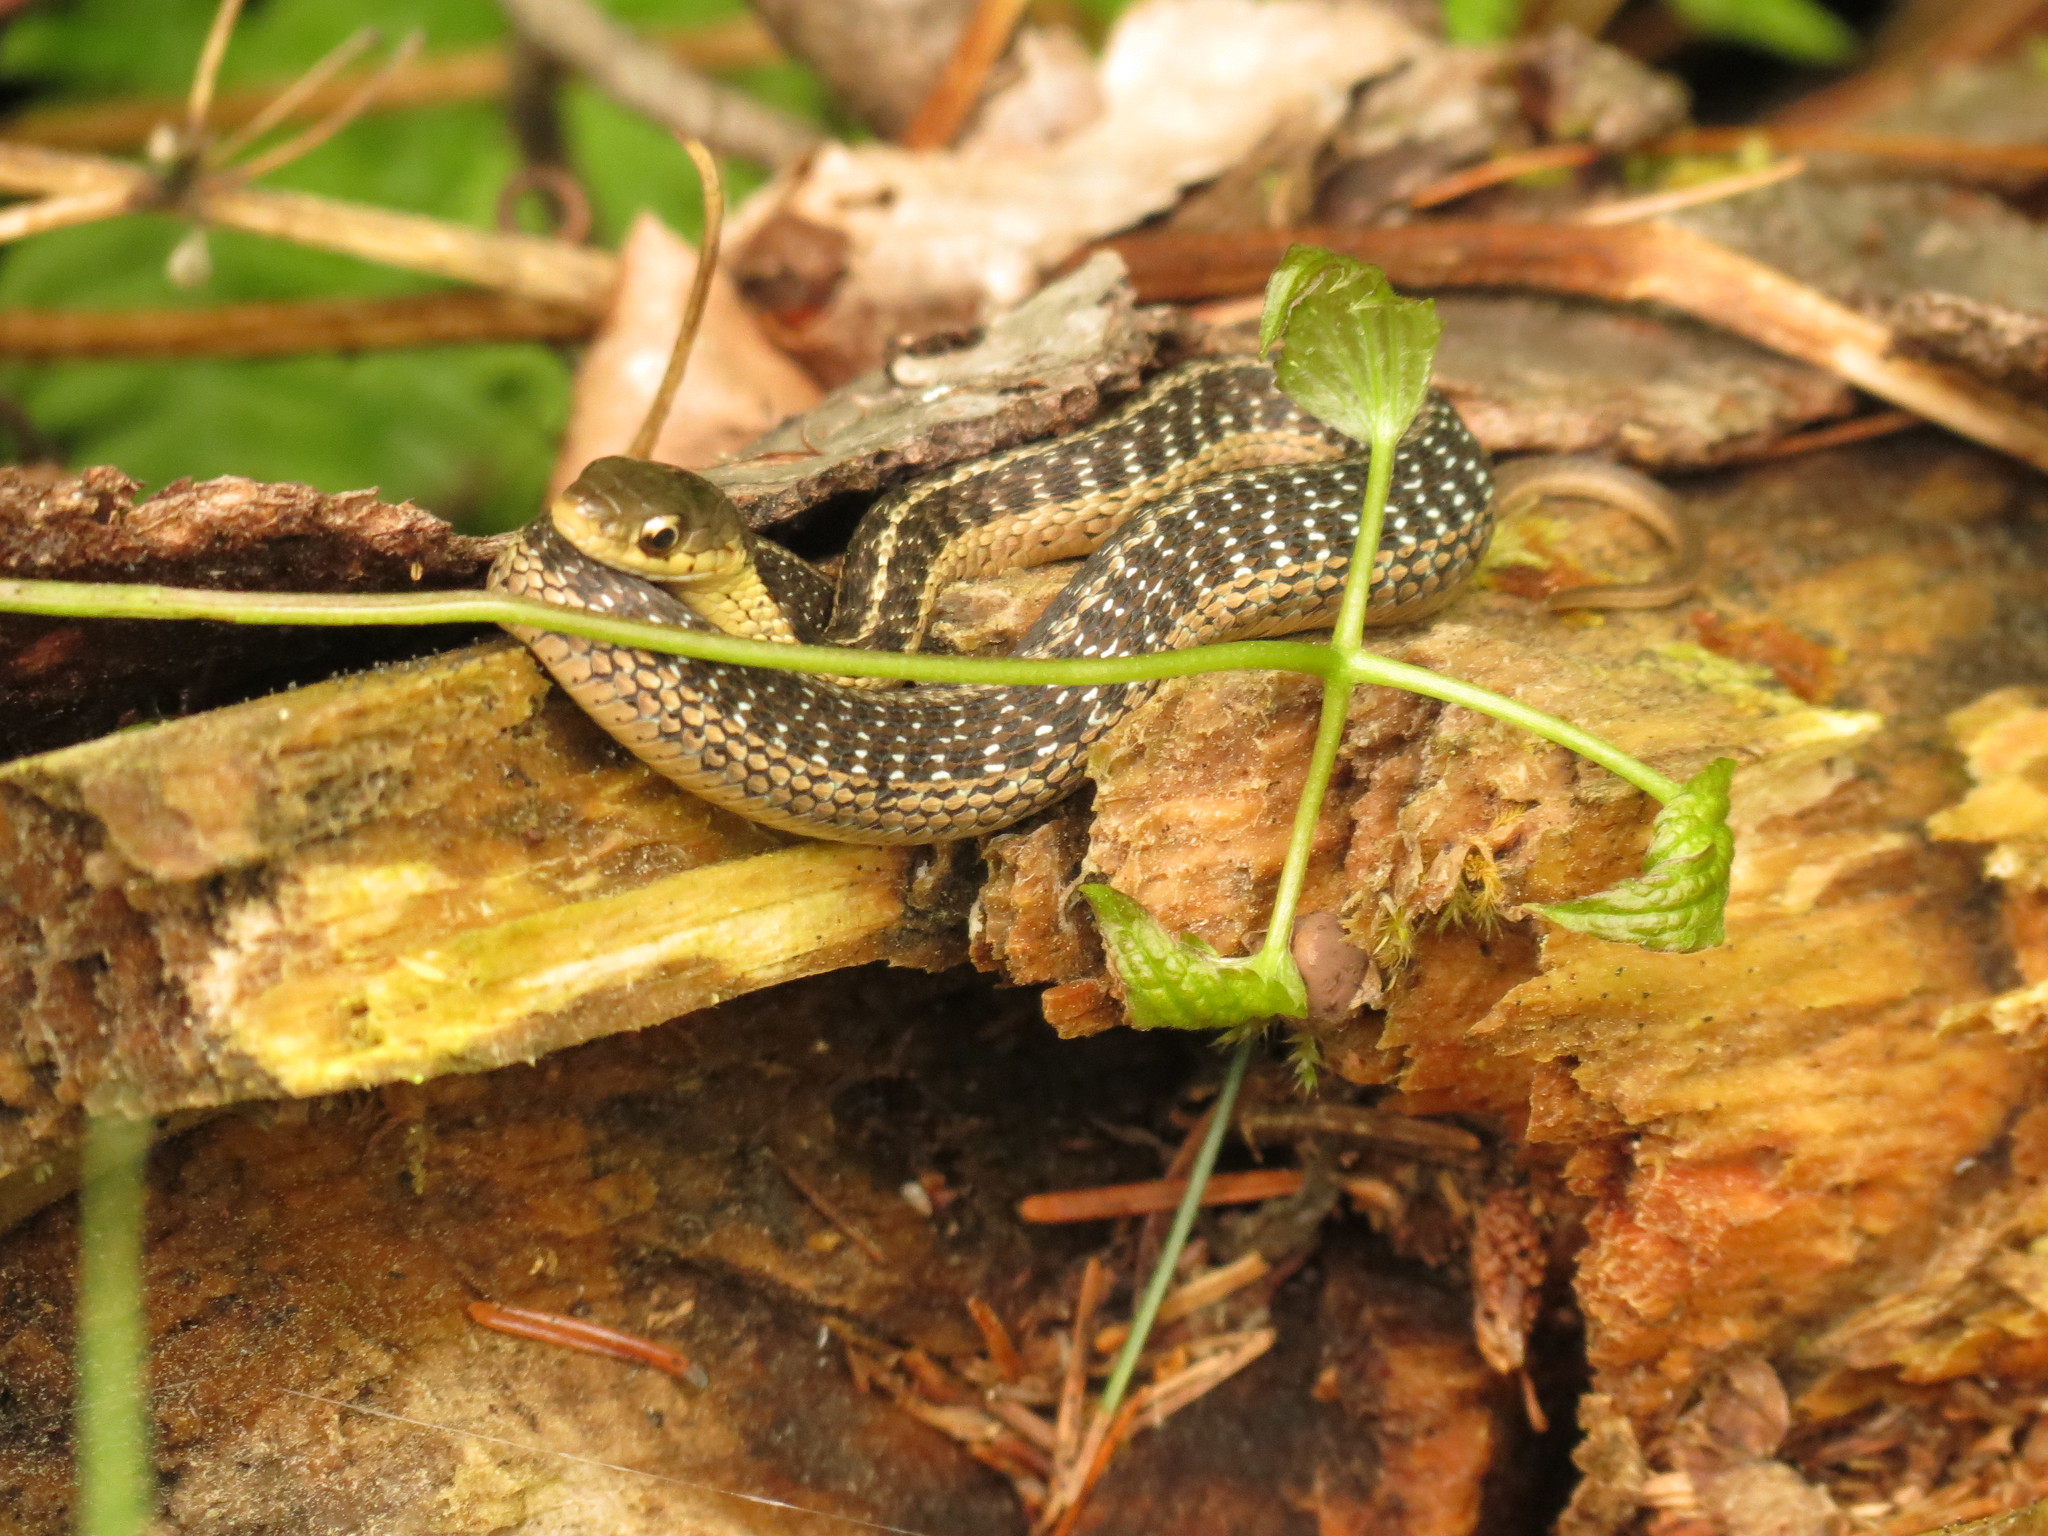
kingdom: Animalia
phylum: Chordata
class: Squamata
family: Colubridae
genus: Thamnophis
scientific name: Thamnophis sirtalis
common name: Common garter snake
